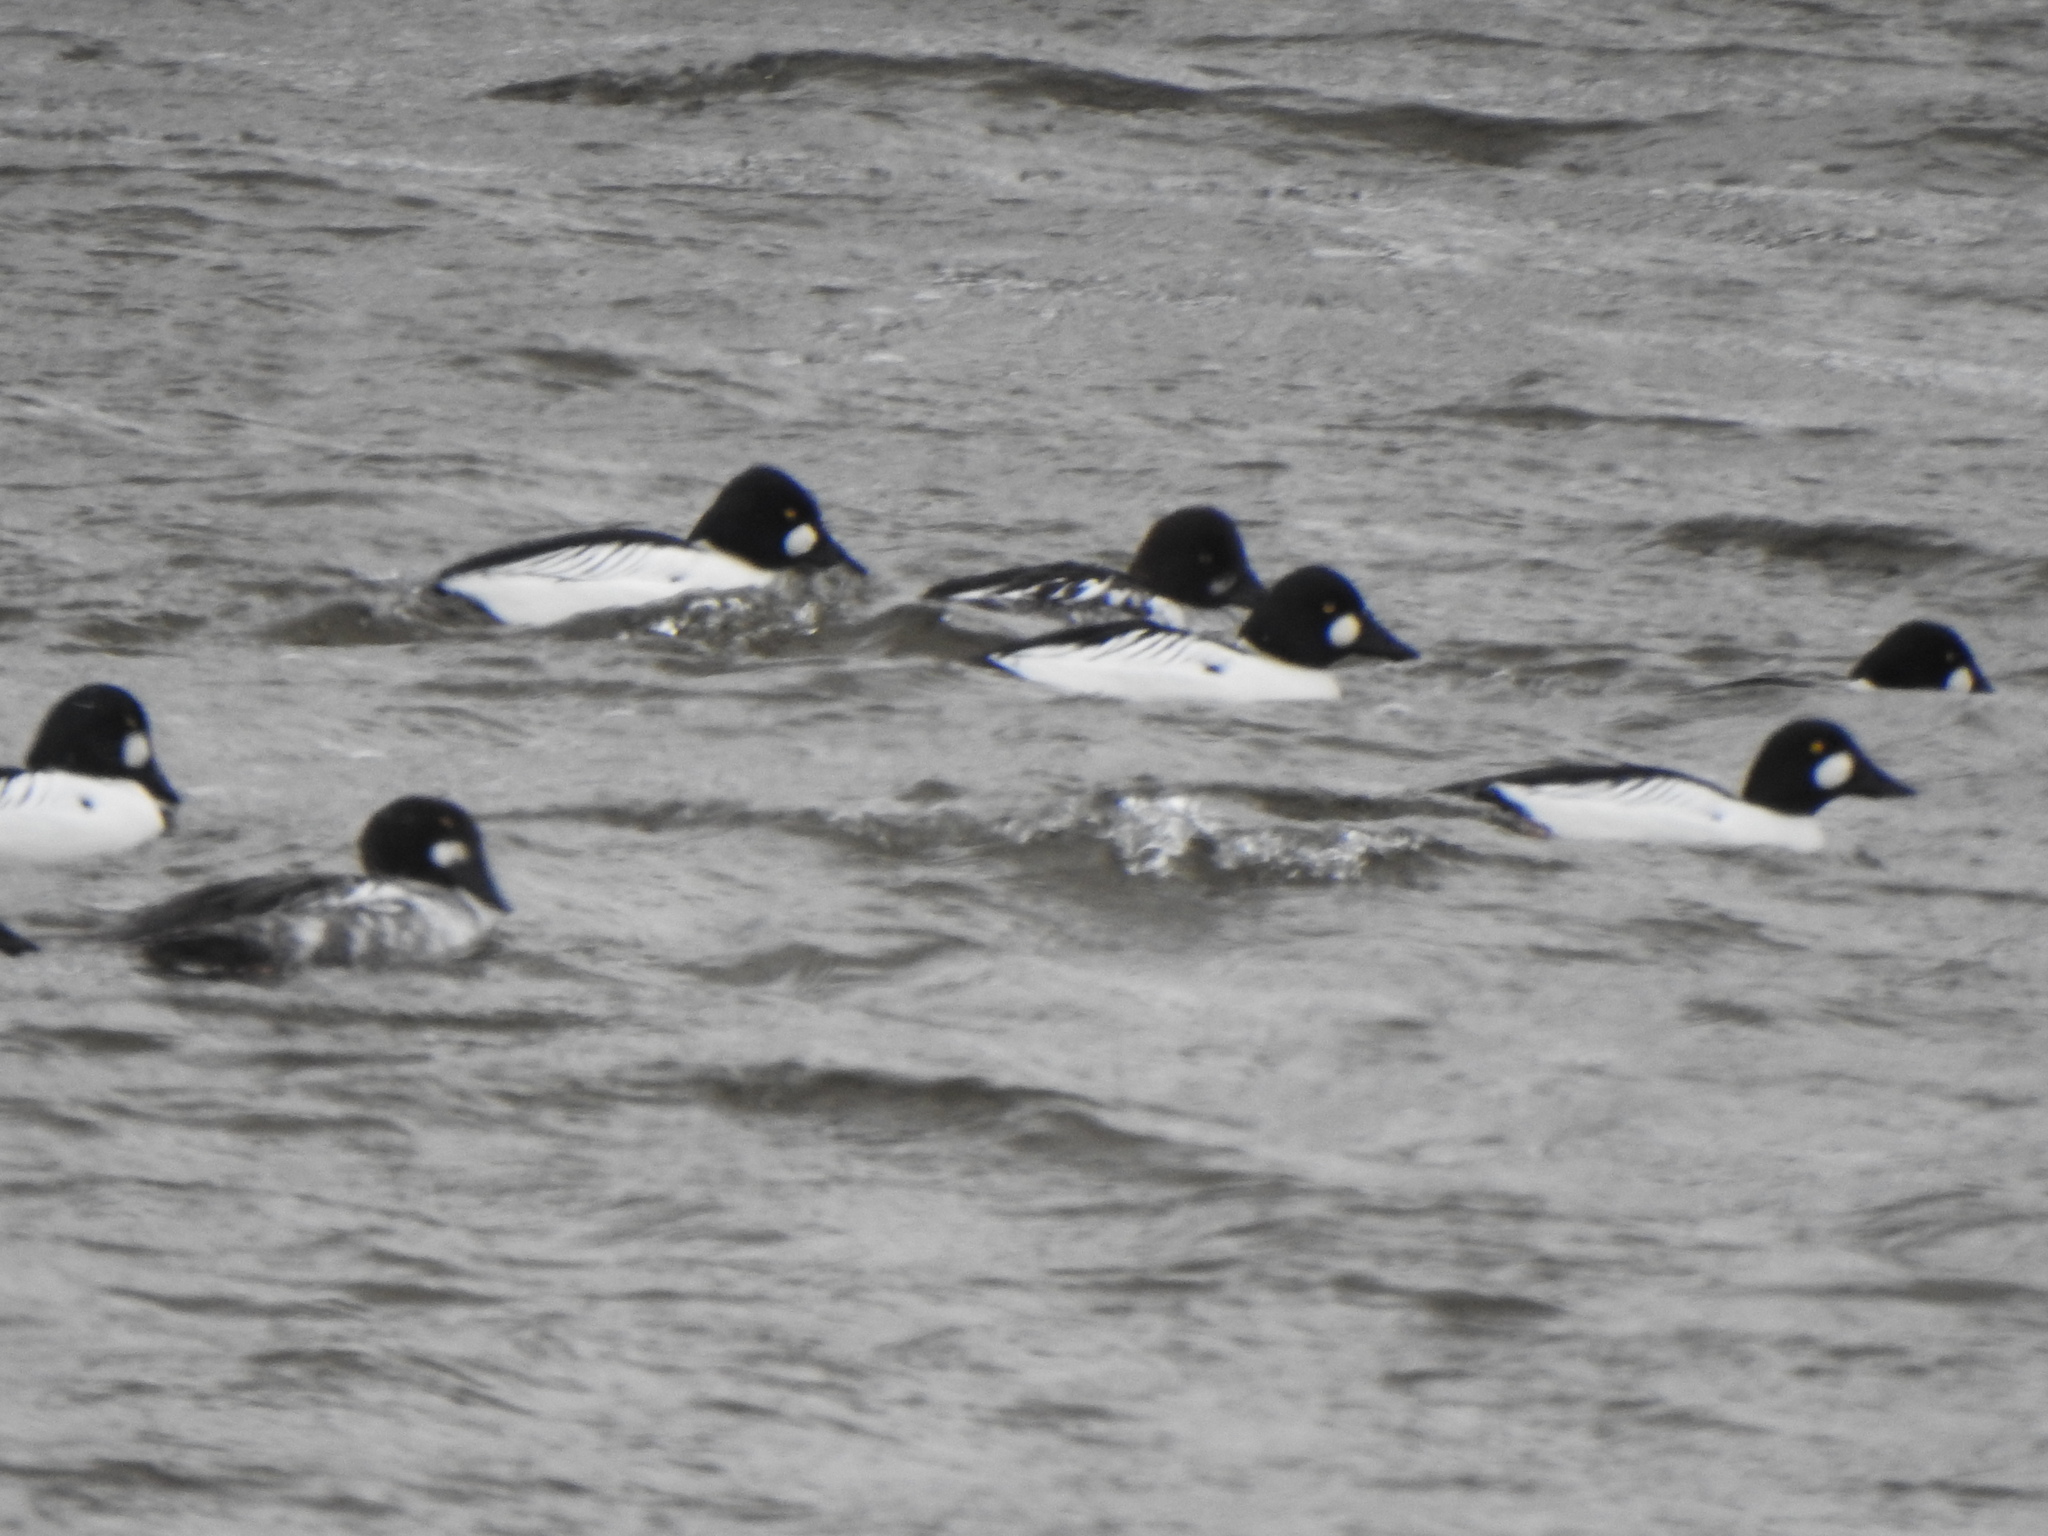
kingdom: Animalia
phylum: Chordata
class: Aves
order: Anseriformes
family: Anatidae
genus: Bucephala
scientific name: Bucephala clangula
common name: Common goldeneye
